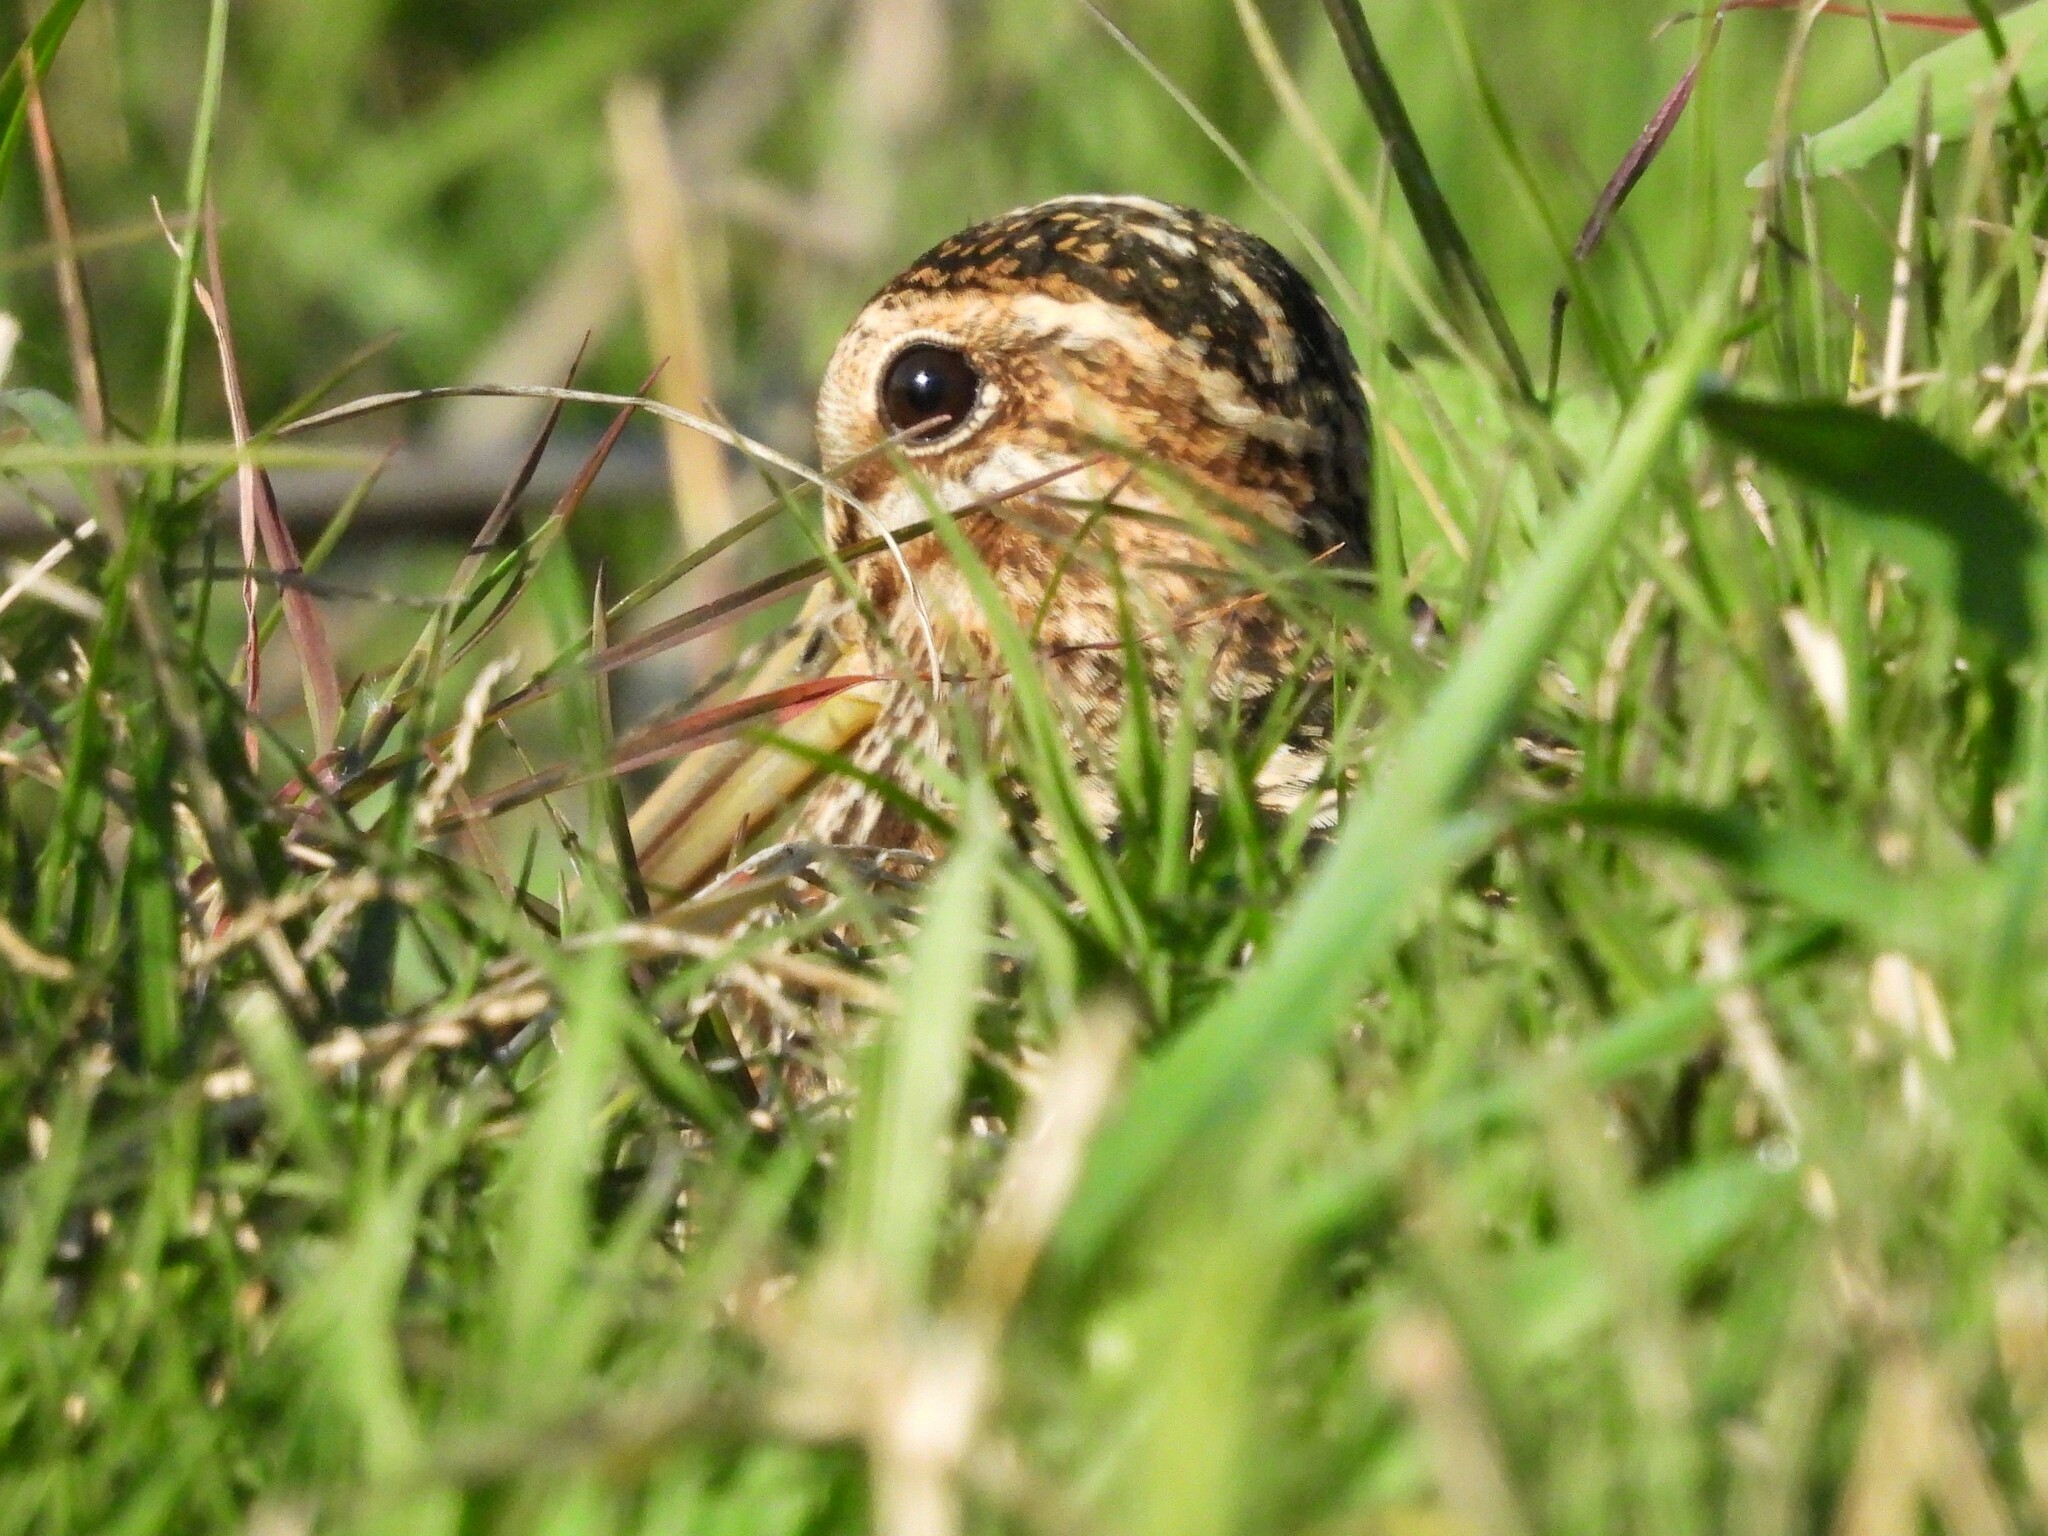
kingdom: Animalia
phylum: Chordata
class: Aves
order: Charadriiformes
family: Scolopacidae
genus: Gallinago
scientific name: Gallinago delicata
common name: Wilson's snipe
